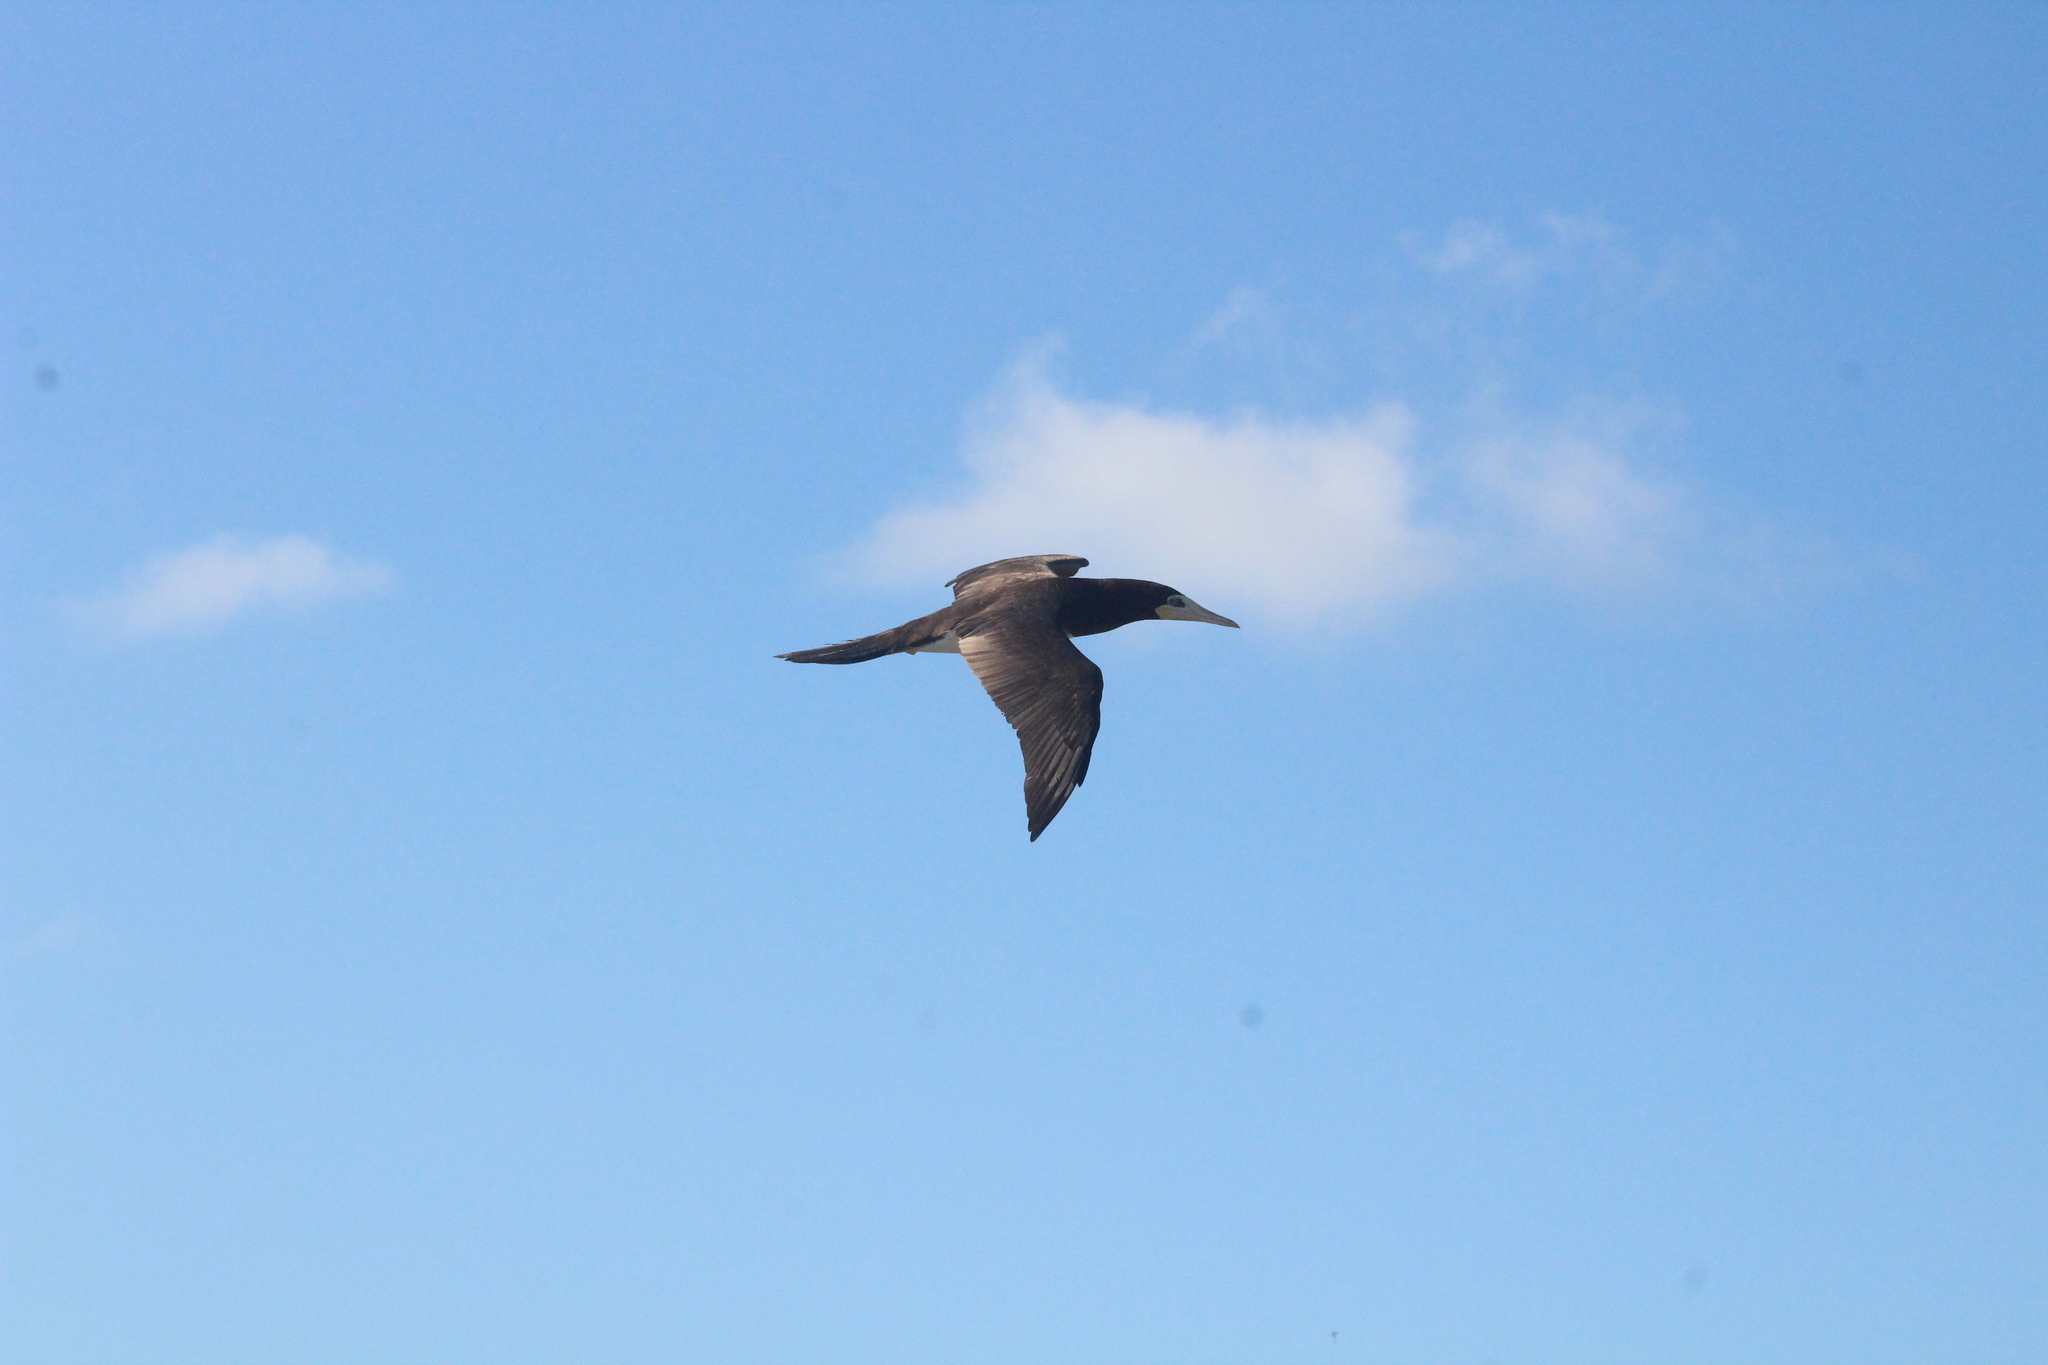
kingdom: Animalia
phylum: Chordata
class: Aves
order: Suliformes
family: Sulidae
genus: Sula
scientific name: Sula leucogaster
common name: Brown booby
